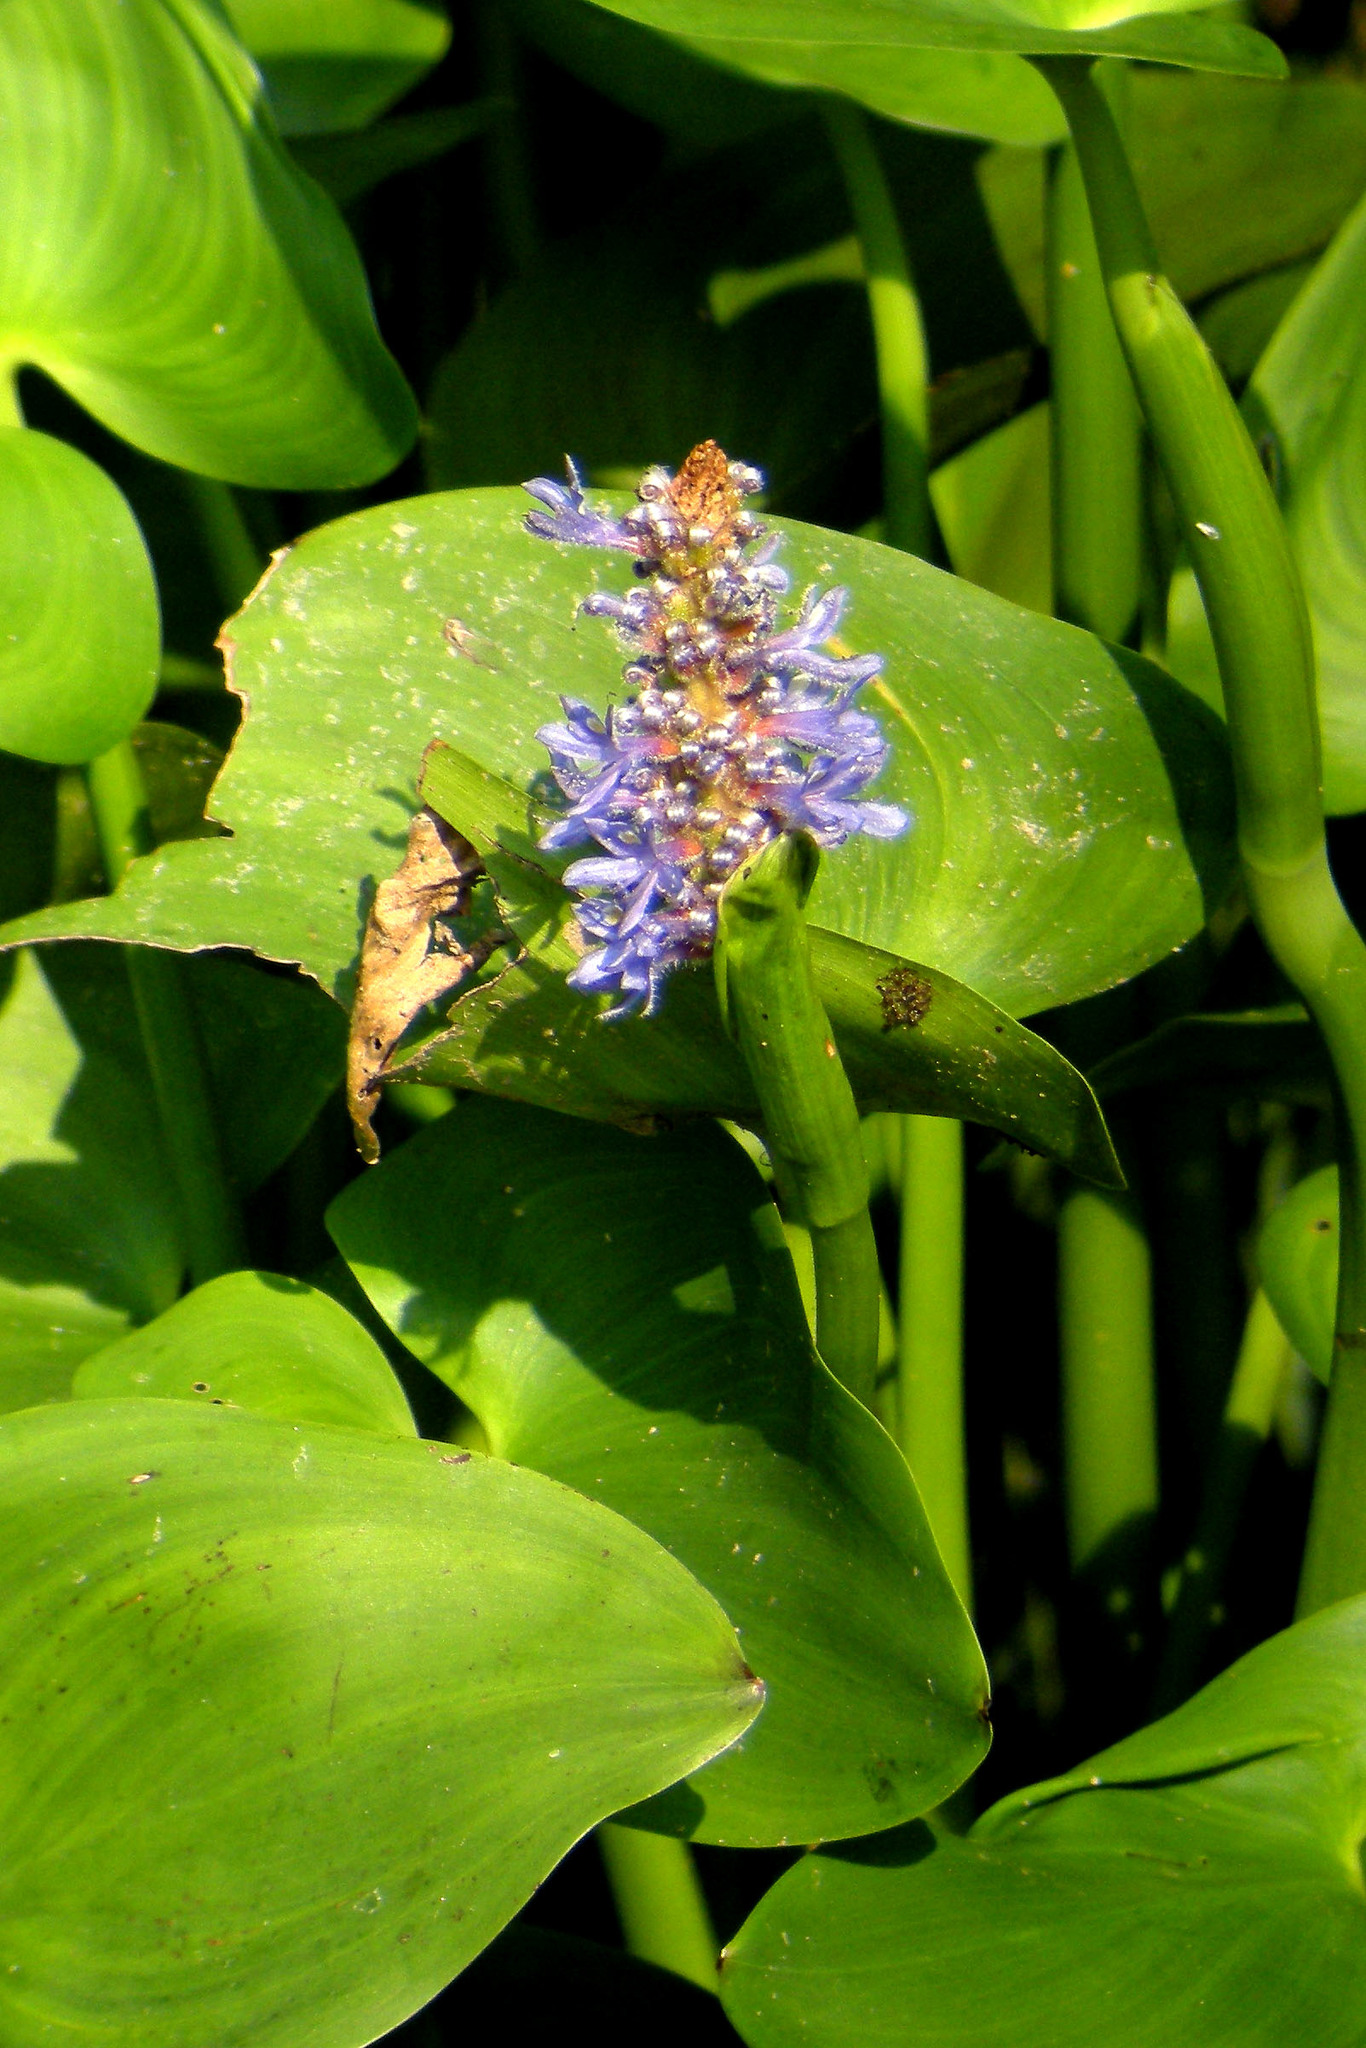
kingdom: Plantae
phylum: Tracheophyta
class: Liliopsida
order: Commelinales
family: Pontederiaceae
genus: Pontederia
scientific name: Pontederia cordata
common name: Pickerelweed
